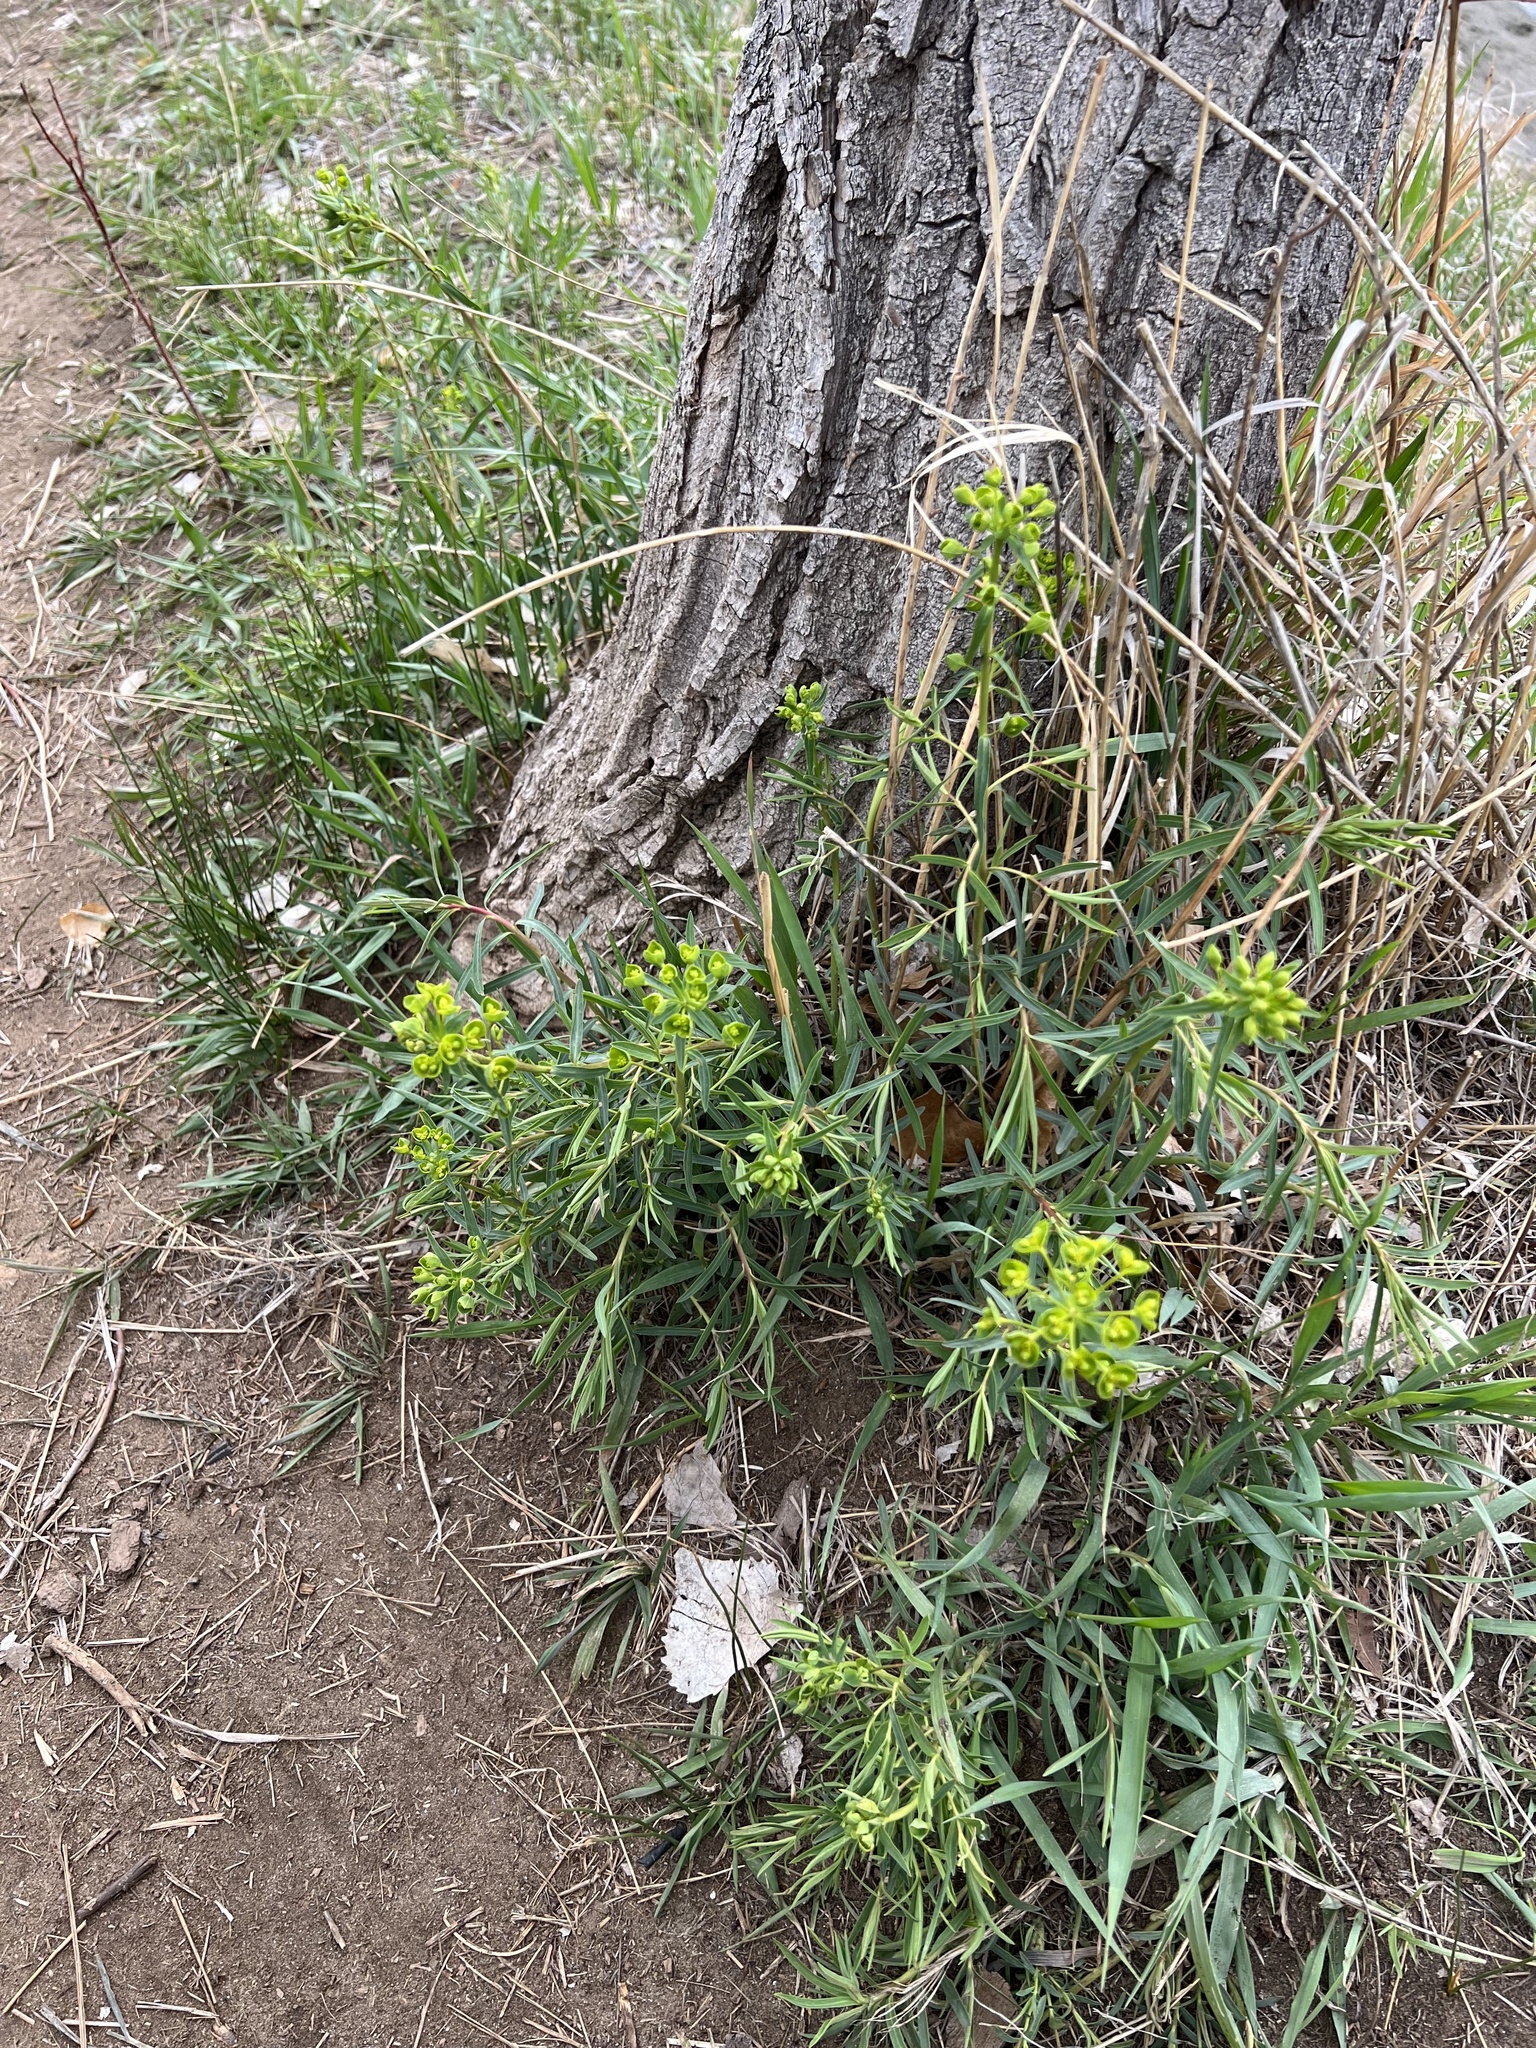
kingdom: Plantae
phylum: Tracheophyta
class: Magnoliopsida
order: Malpighiales
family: Euphorbiaceae
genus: Euphorbia
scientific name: Euphorbia virgata
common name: Leafy spurge
